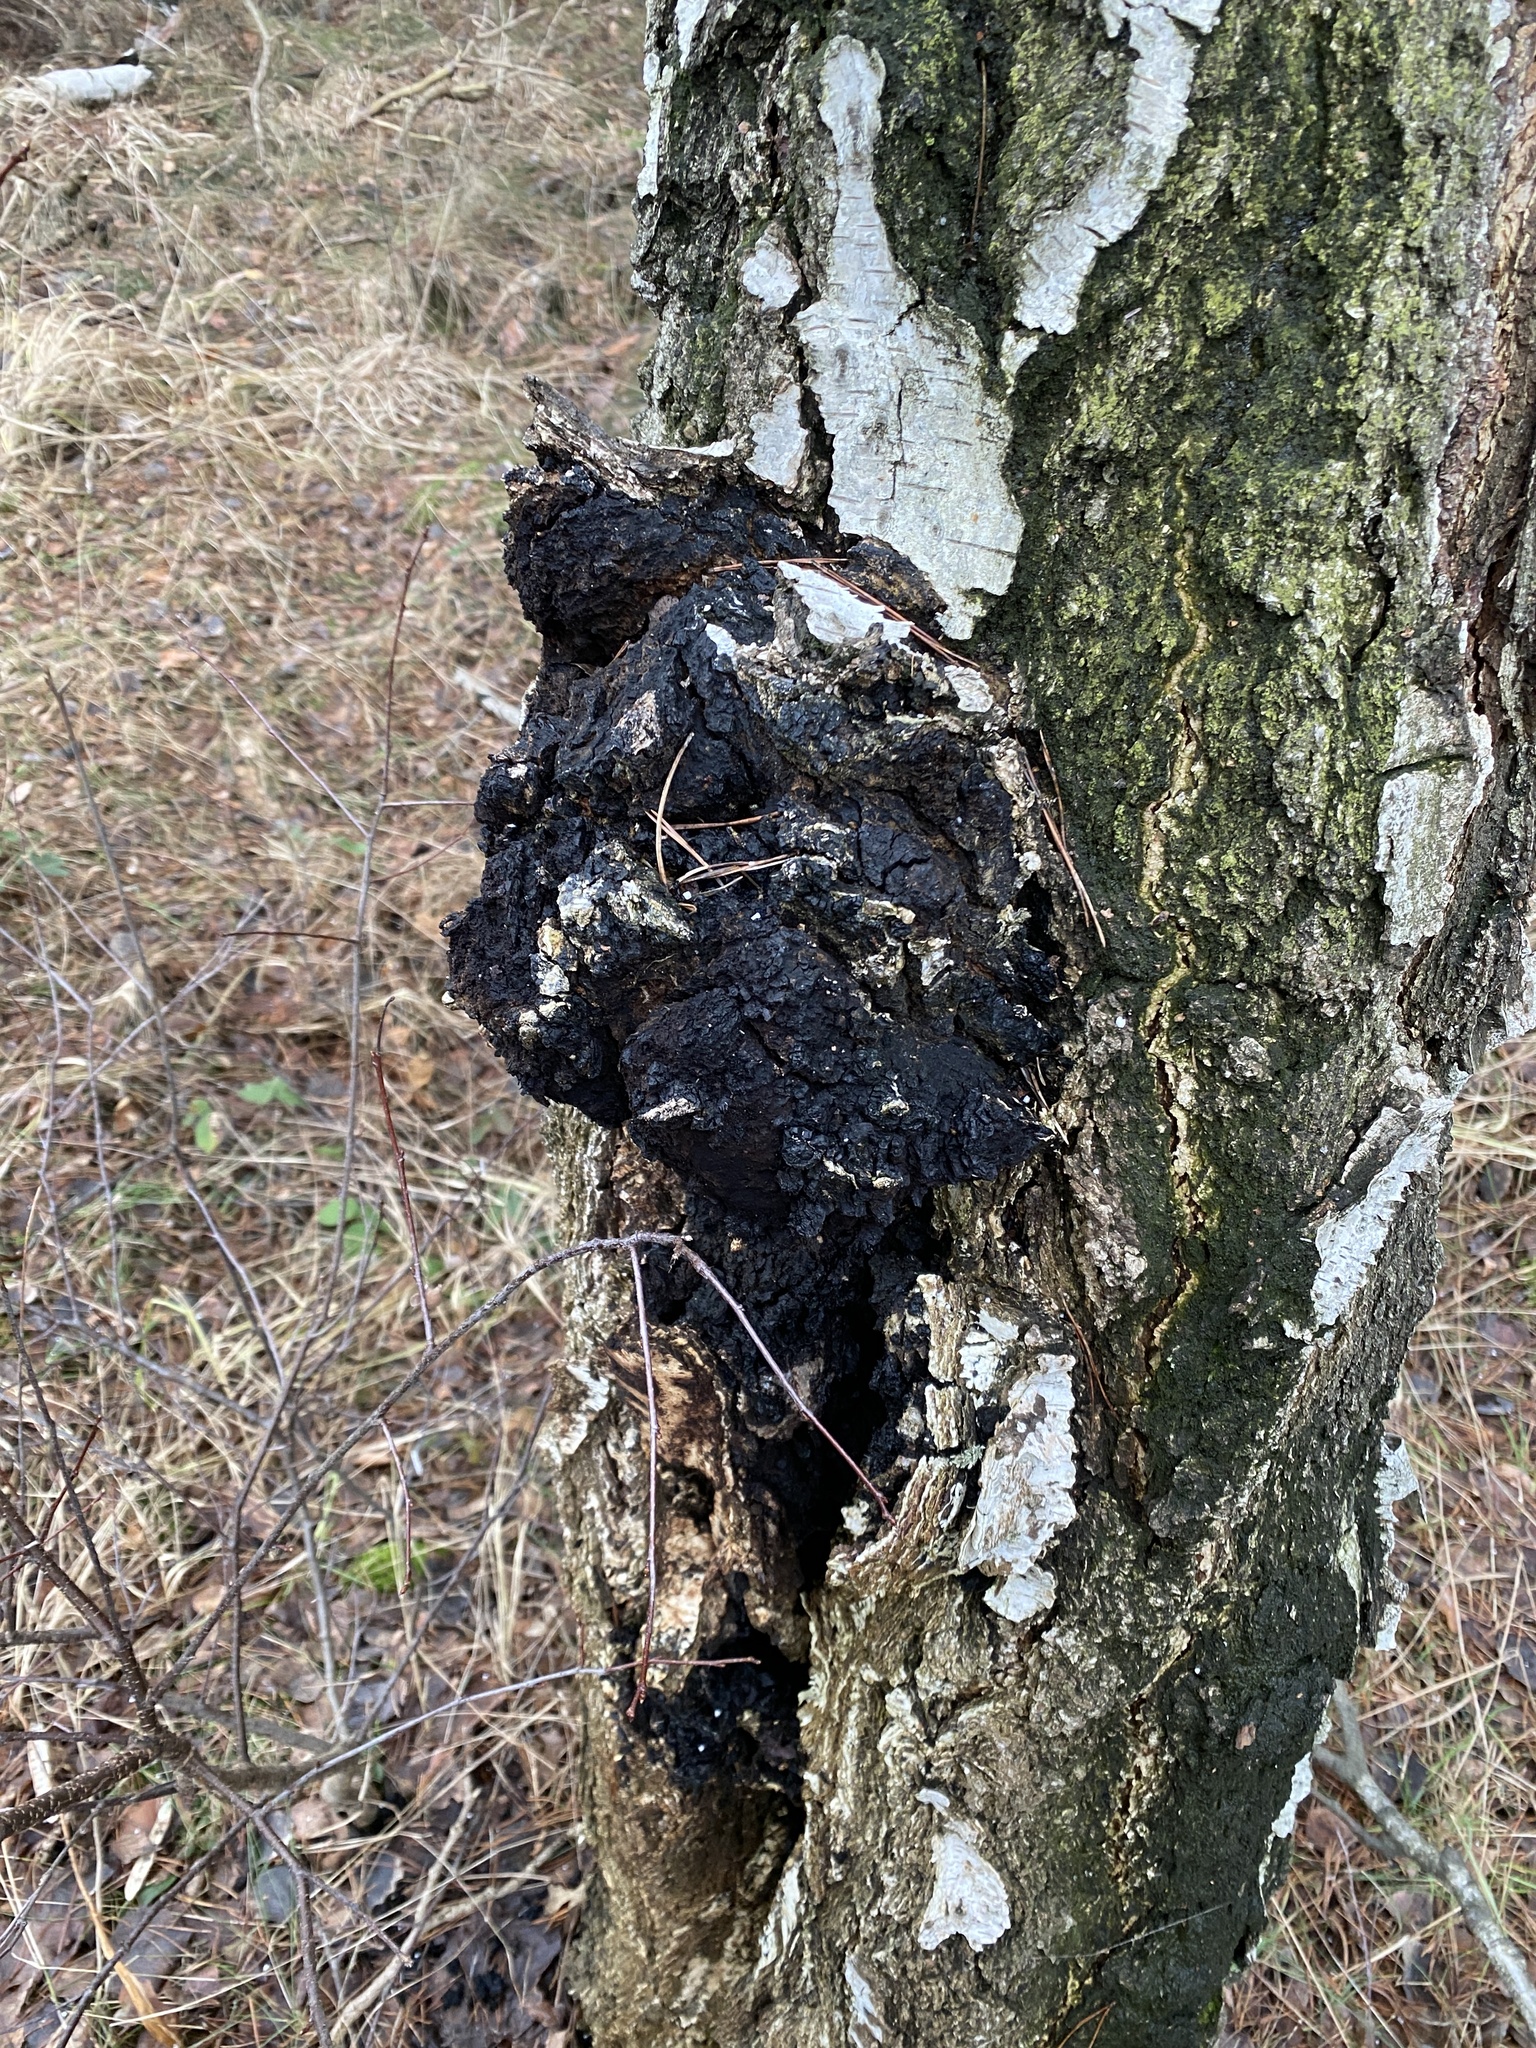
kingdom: Fungi
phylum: Basidiomycota
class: Agaricomycetes
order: Hymenochaetales
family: Hymenochaetaceae
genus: Inonotus
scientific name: Inonotus obliquus
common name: Chaga
